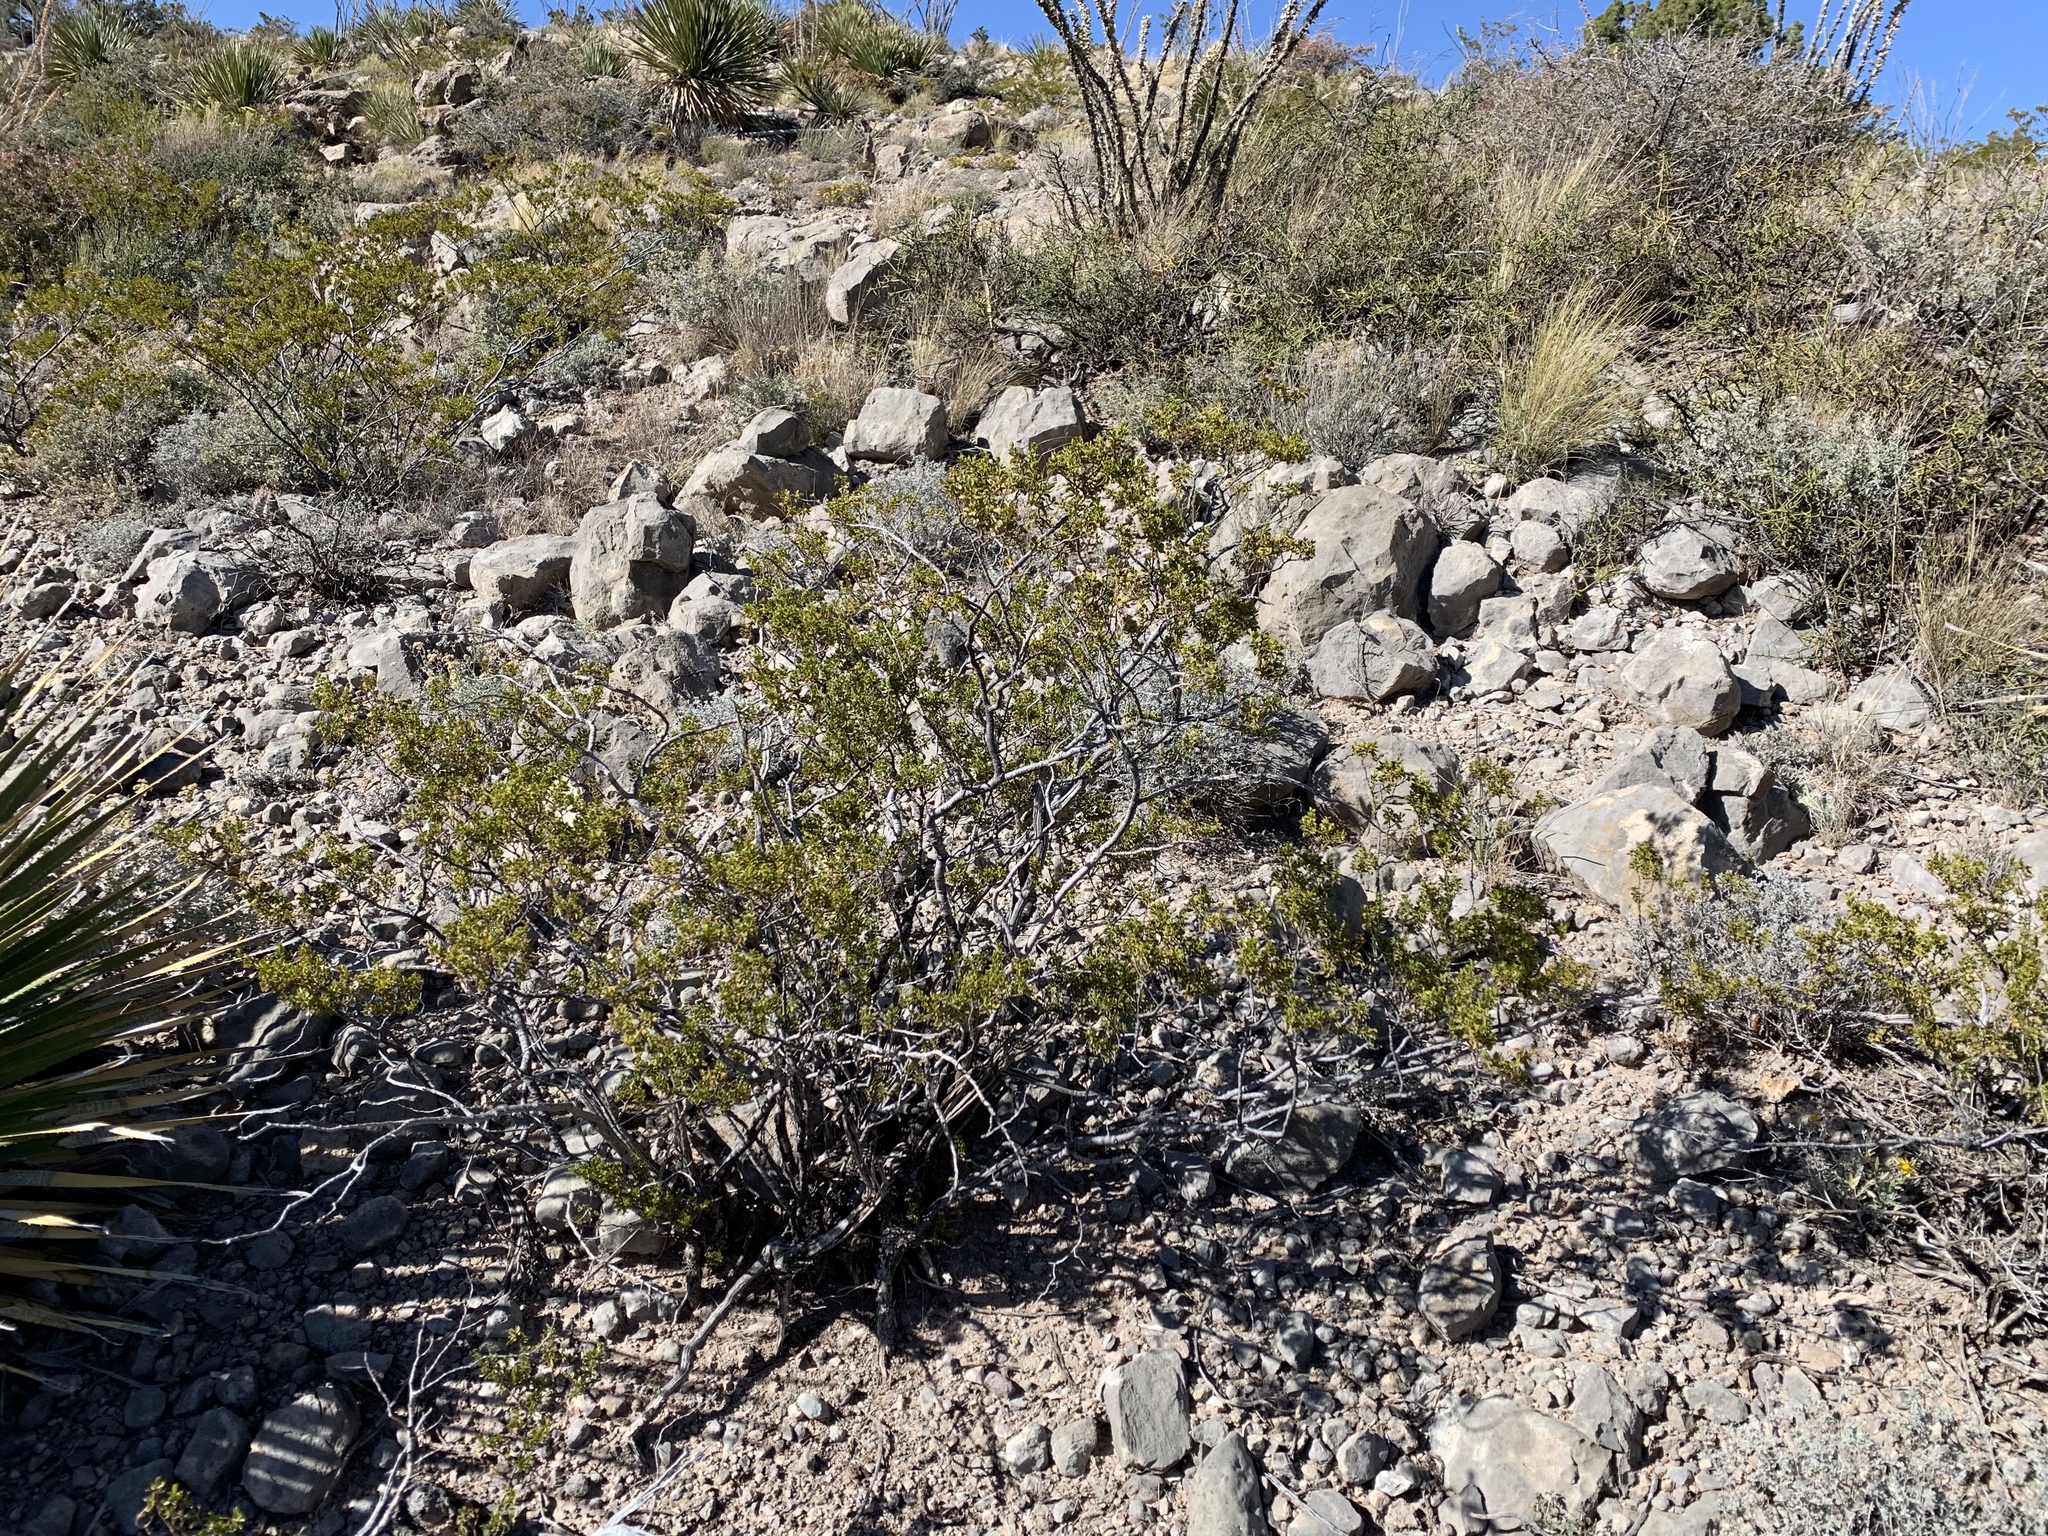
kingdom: Plantae
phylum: Tracheophyta
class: Magnoliopsida
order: Zygophyllales
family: Zygophyllaceae
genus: Larrea
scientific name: Larrea tridentata
